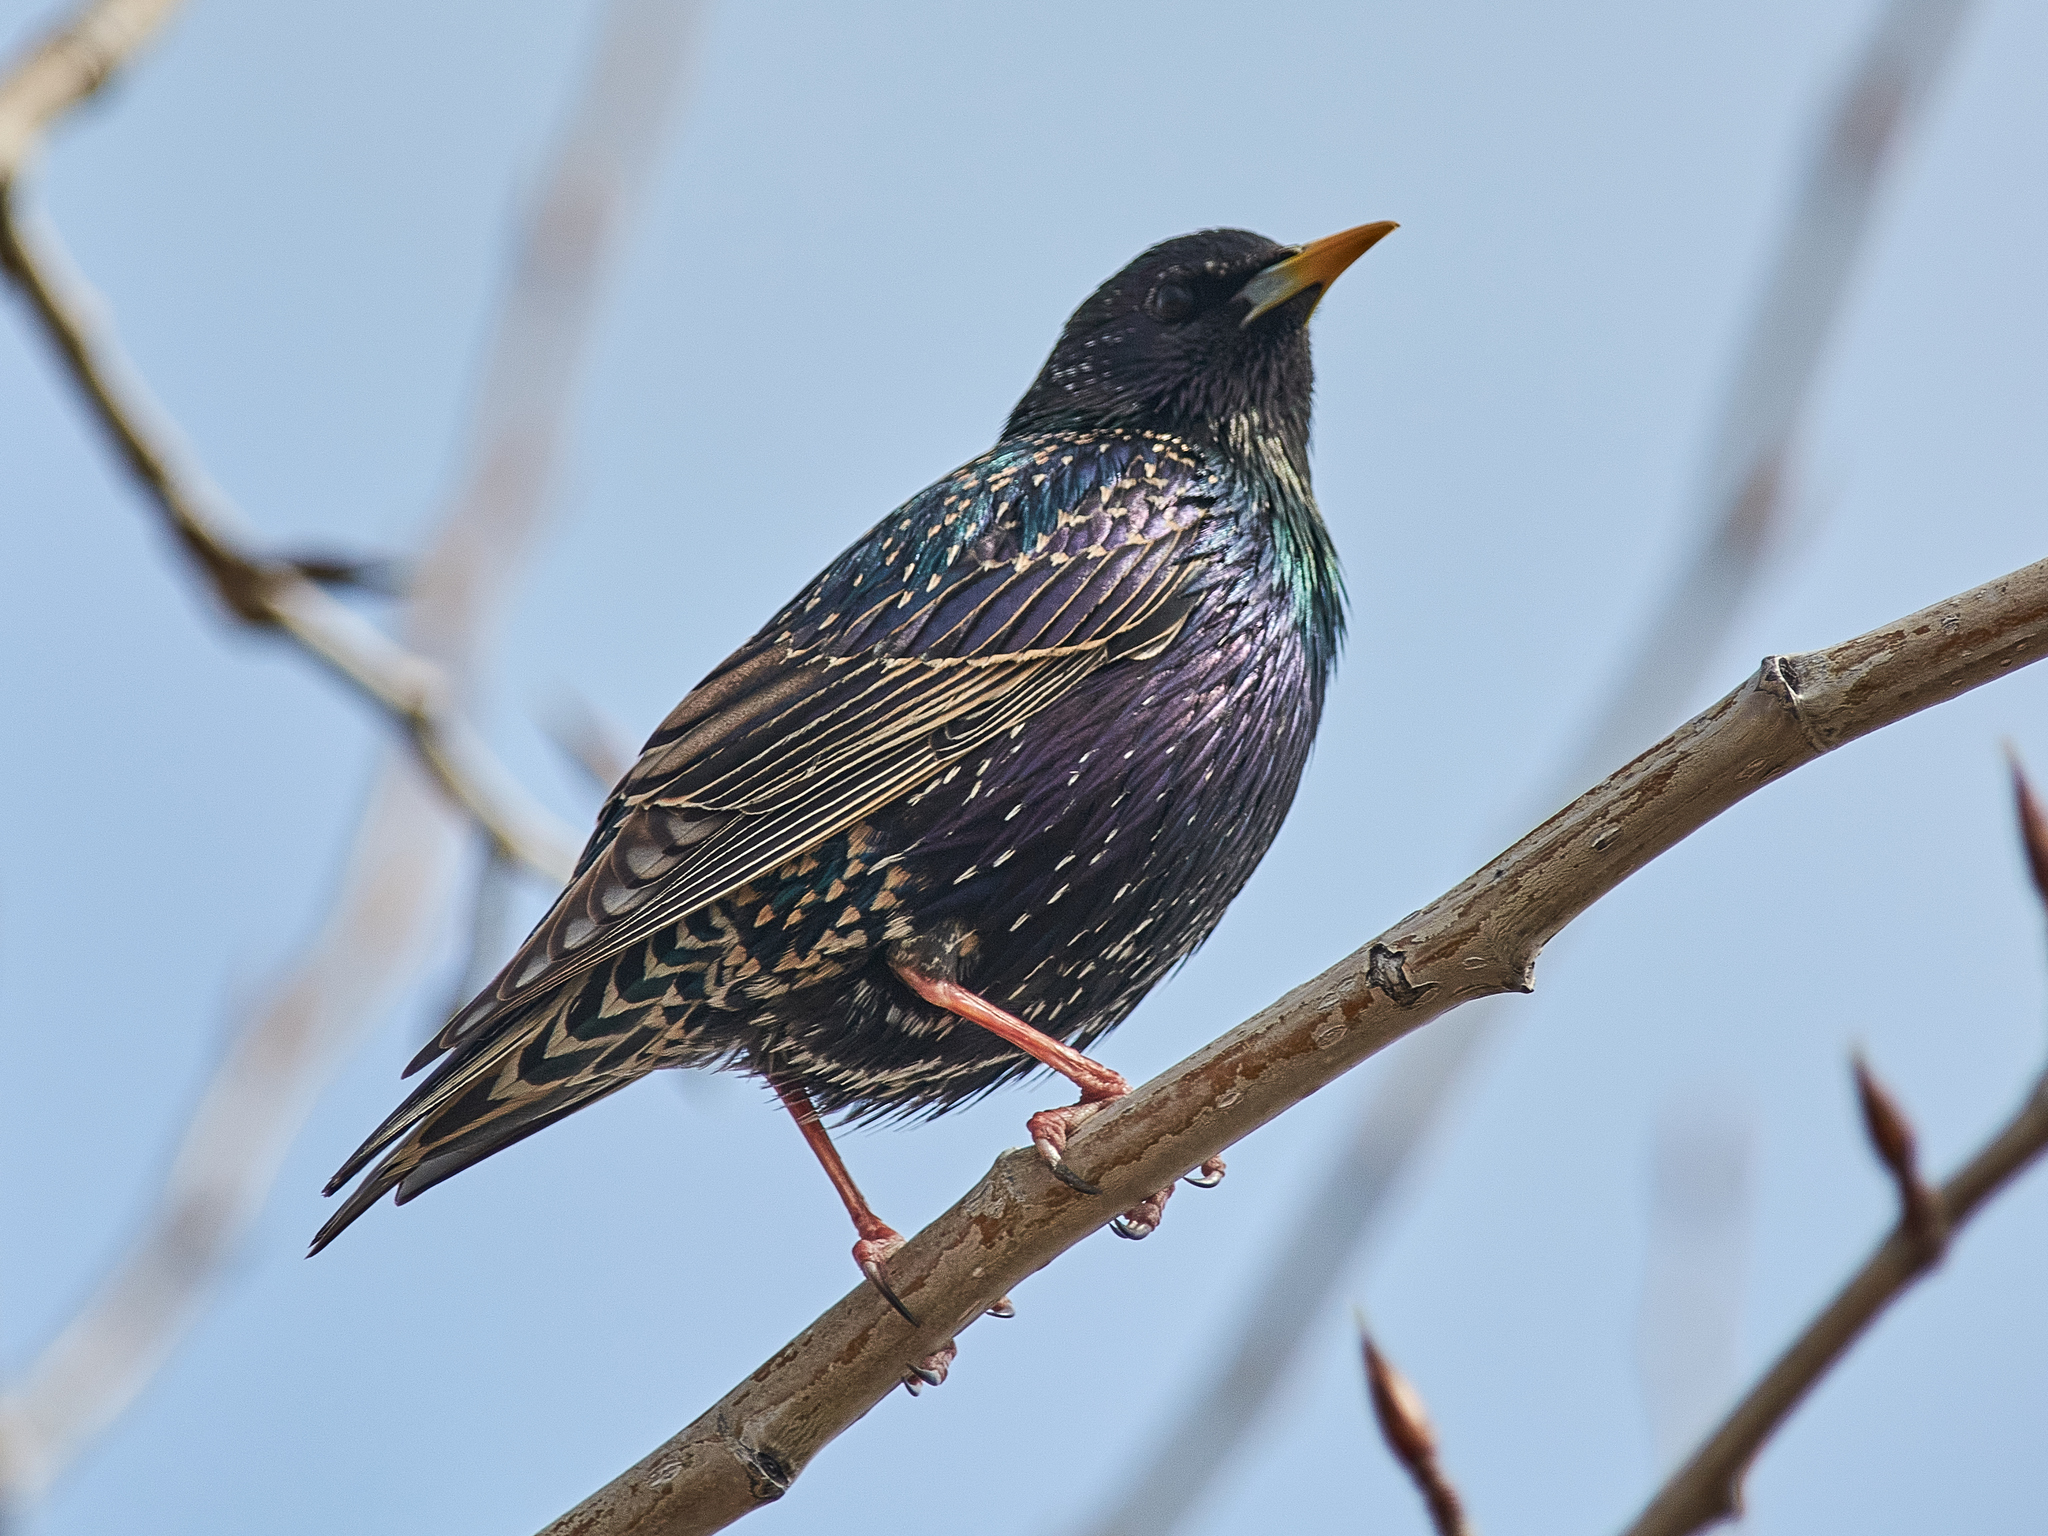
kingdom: Animalia
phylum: Chordata
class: Aves
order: Passeriformes
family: Sturnidae
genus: Sturnus
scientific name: Sturnus vulgaris
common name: Common starling
